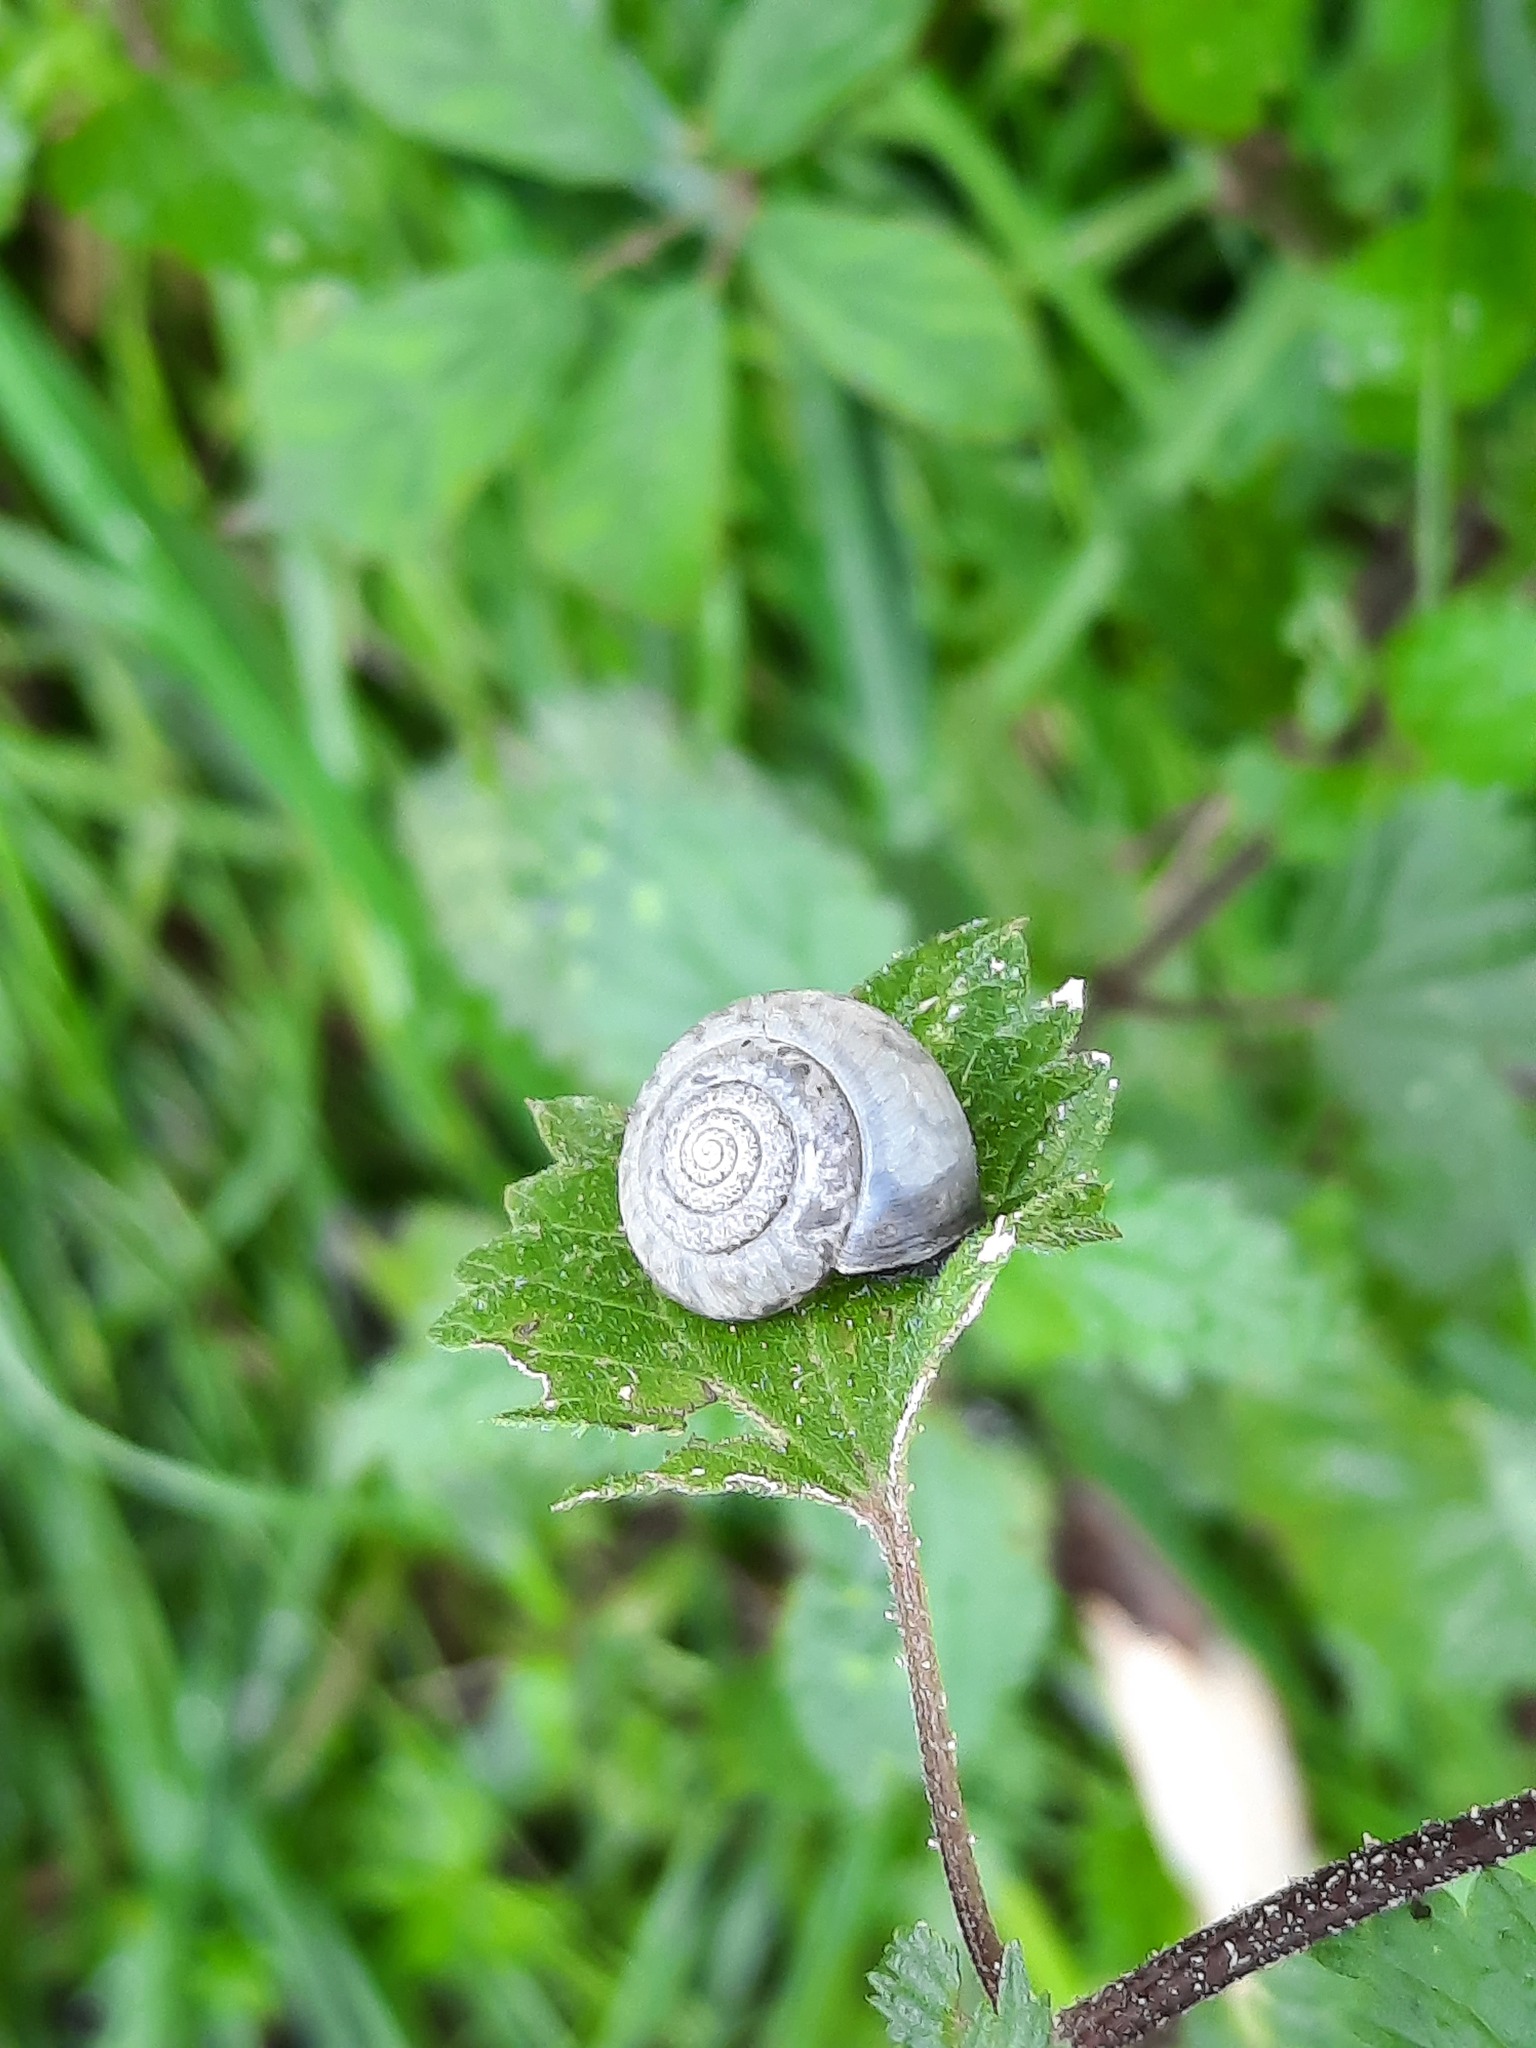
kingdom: Animalia
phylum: Mollusca
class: Gastropoda
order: Stylommatophora
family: Hygromiidae
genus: Monacha
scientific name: Monacha cantiana
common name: Kentish snail
